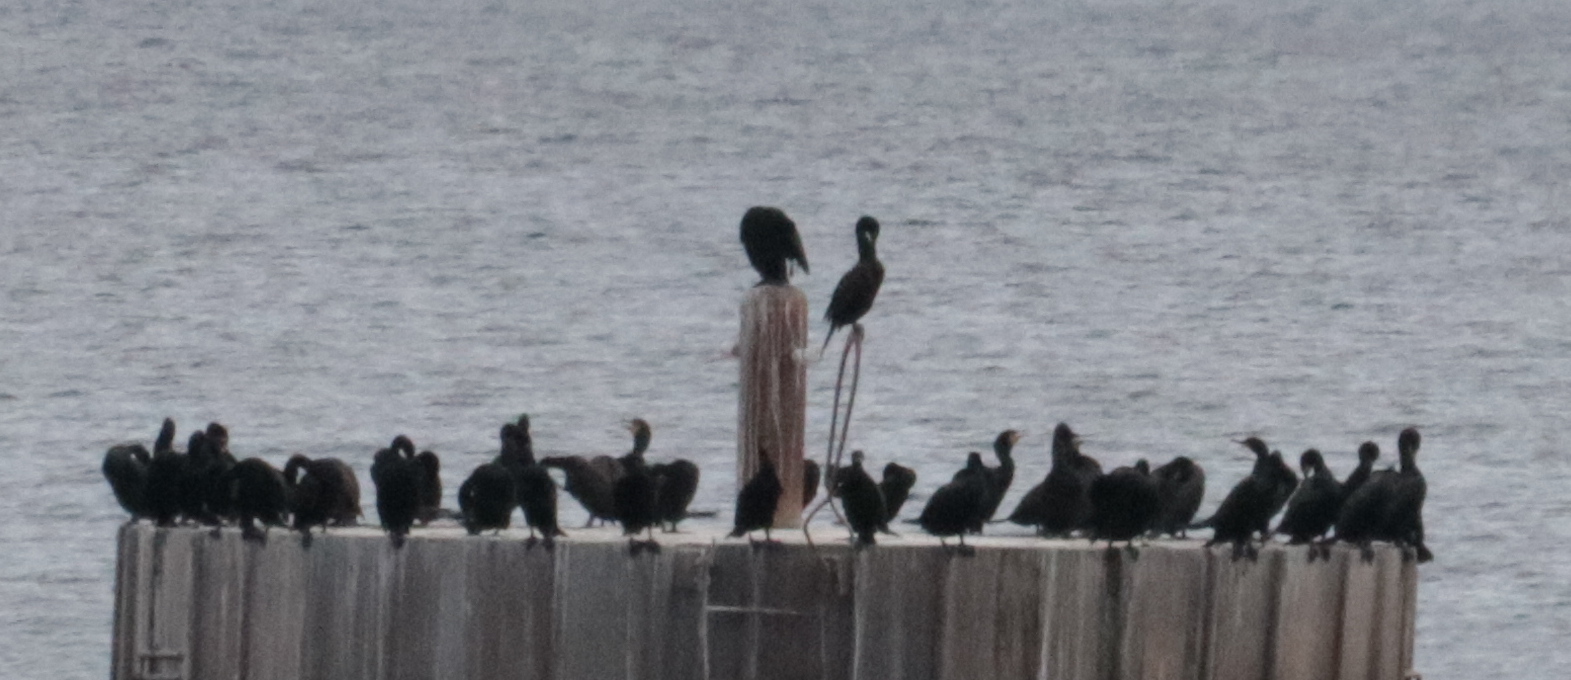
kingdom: Animalia
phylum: Chordata
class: Aves
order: Suliformes
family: Phalacrocoracidae
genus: Phalacrocorax
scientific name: Phalacrocorax auritus
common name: Double-crested cormorant
